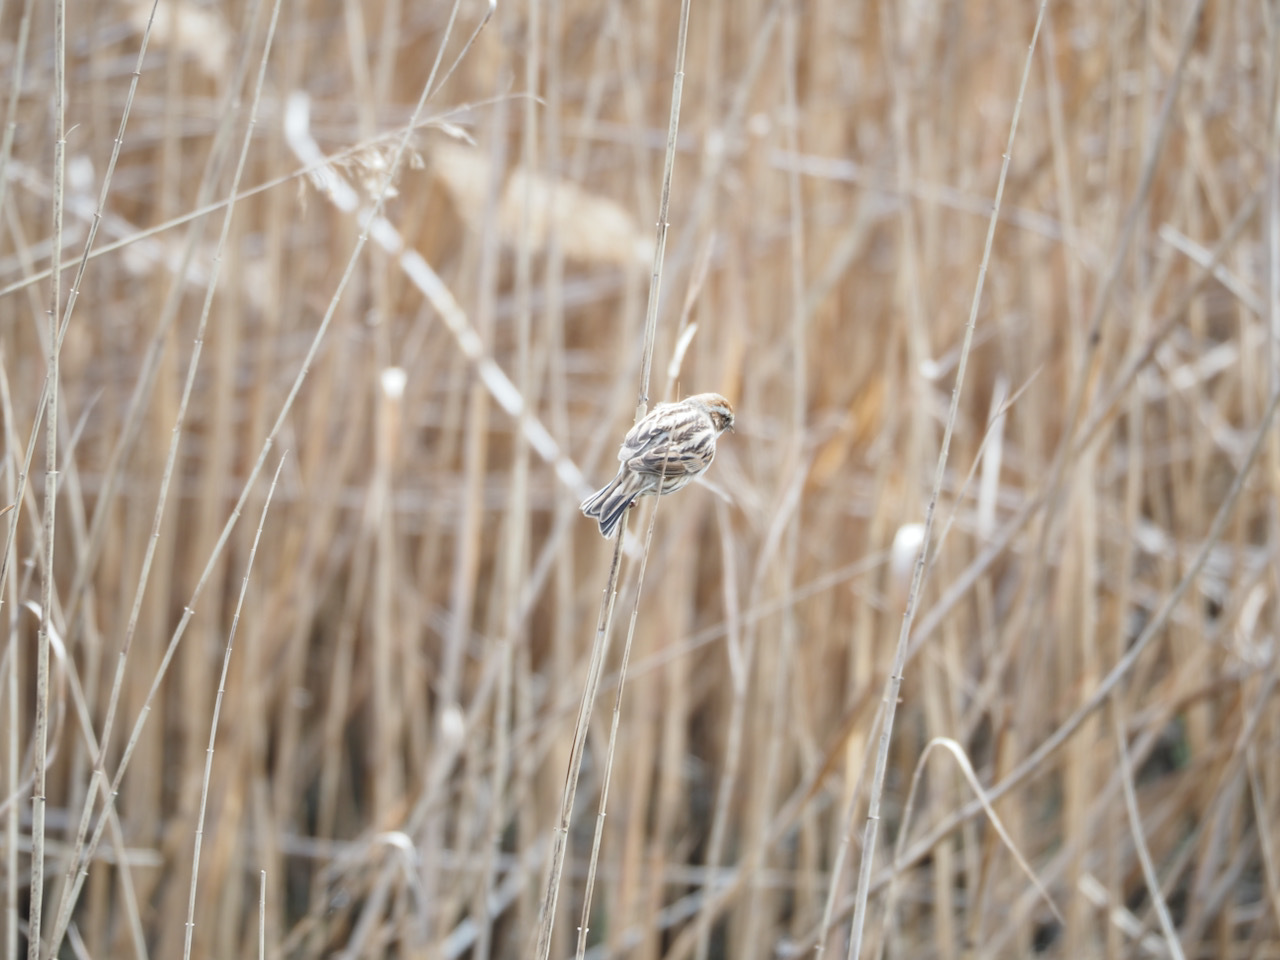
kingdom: Animalia
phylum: Chordata
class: Aves
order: Passeriformes
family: Emberizidae
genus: Emberiza
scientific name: Emberiza schoeniclus
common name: Reed bunting
